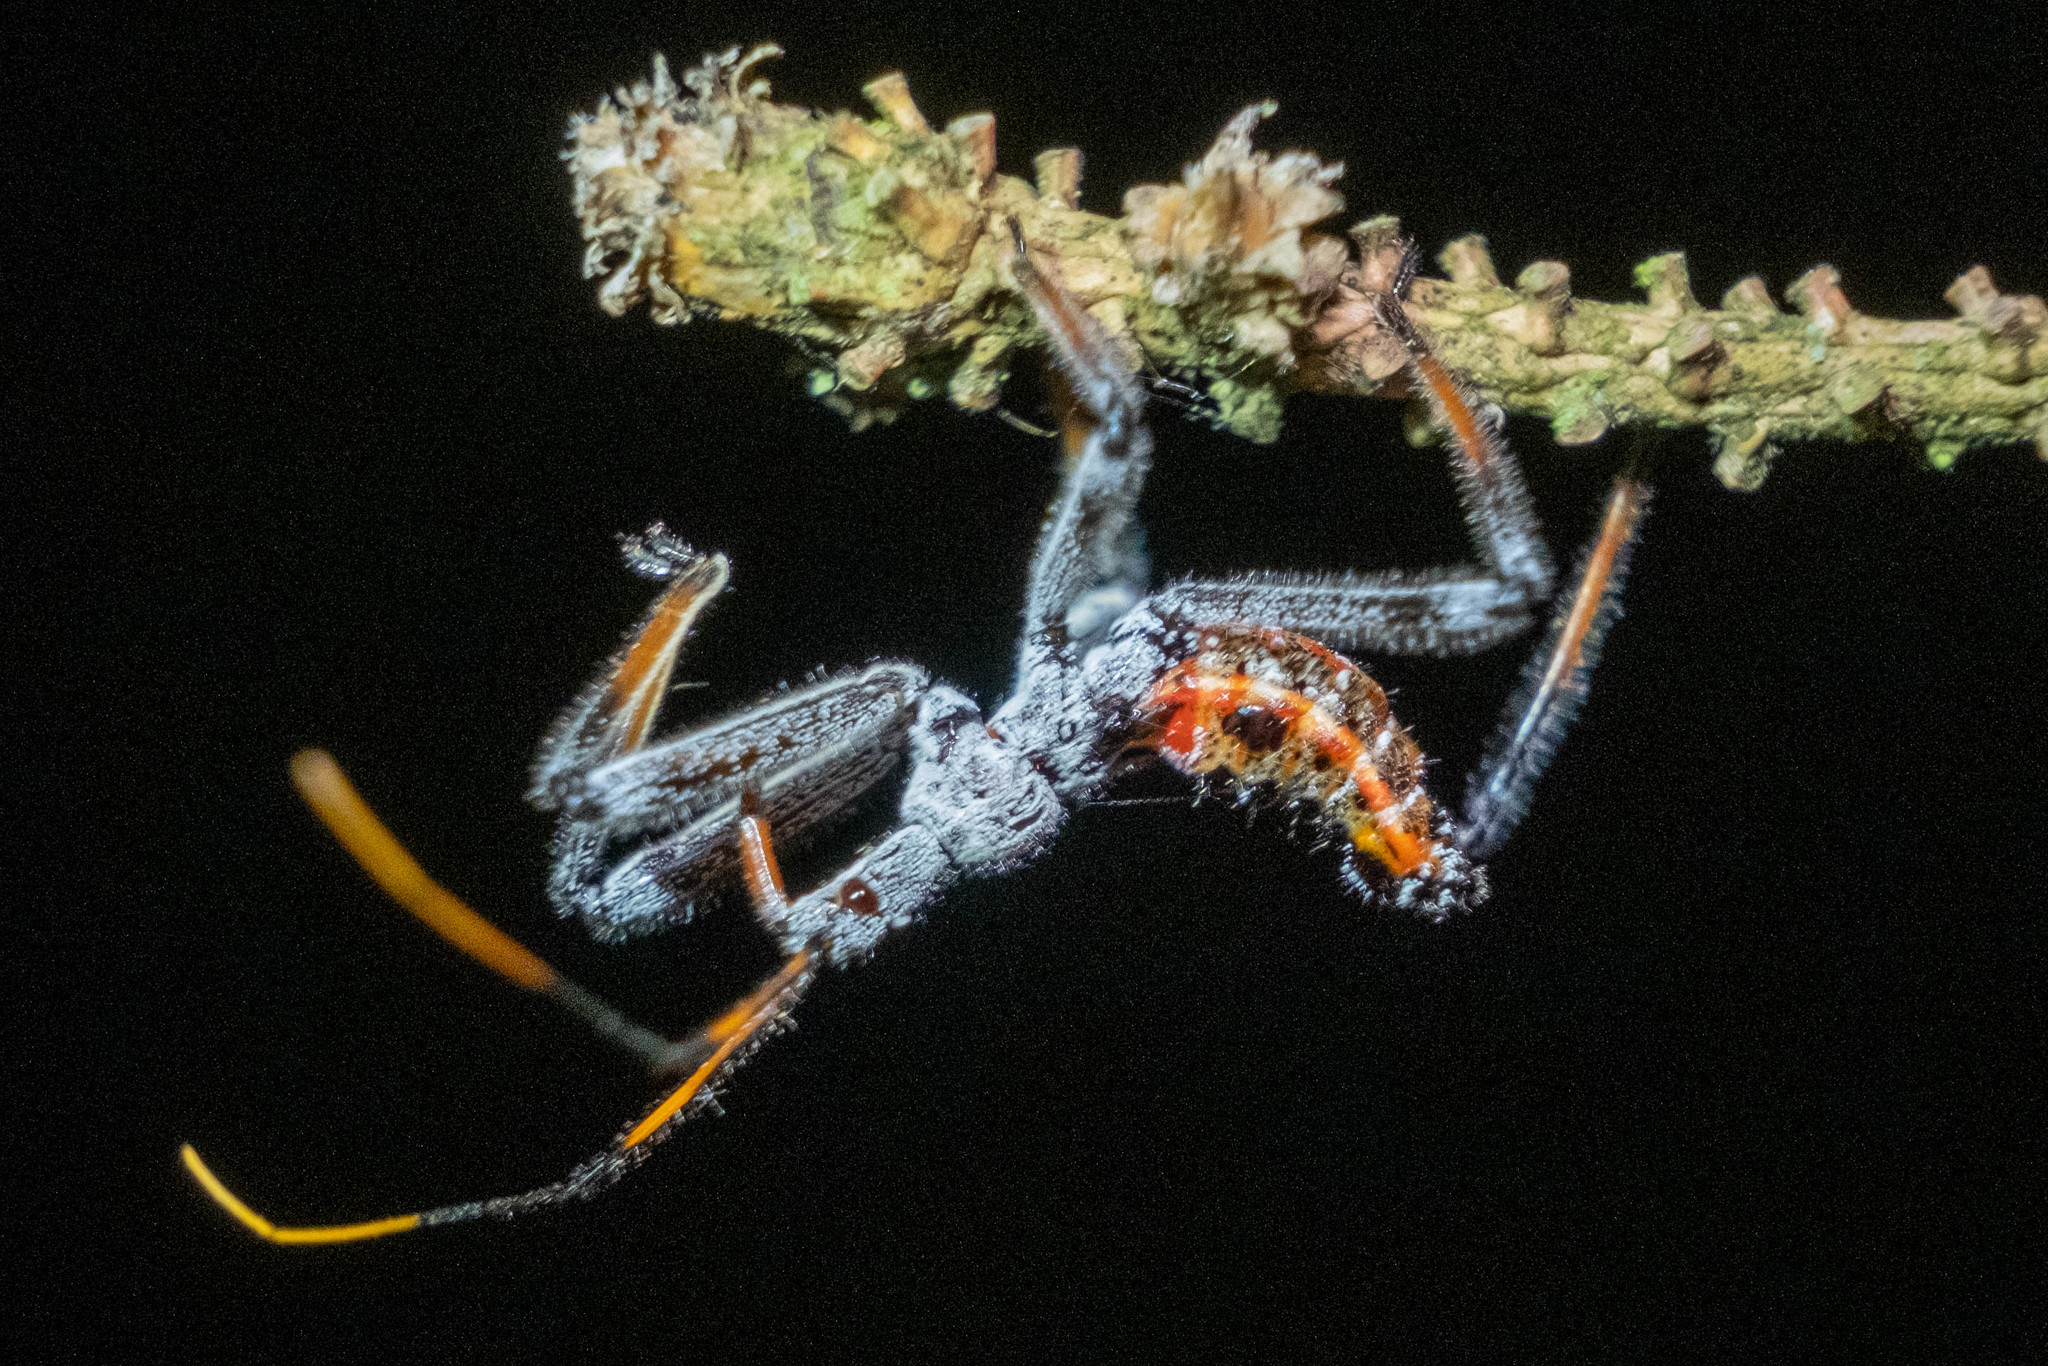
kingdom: Animalia
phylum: Arthropoda
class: Insecta
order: Hemiptera
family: Reduviidae
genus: Arilus
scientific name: Arilus cristatus
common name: North american wheel bug
